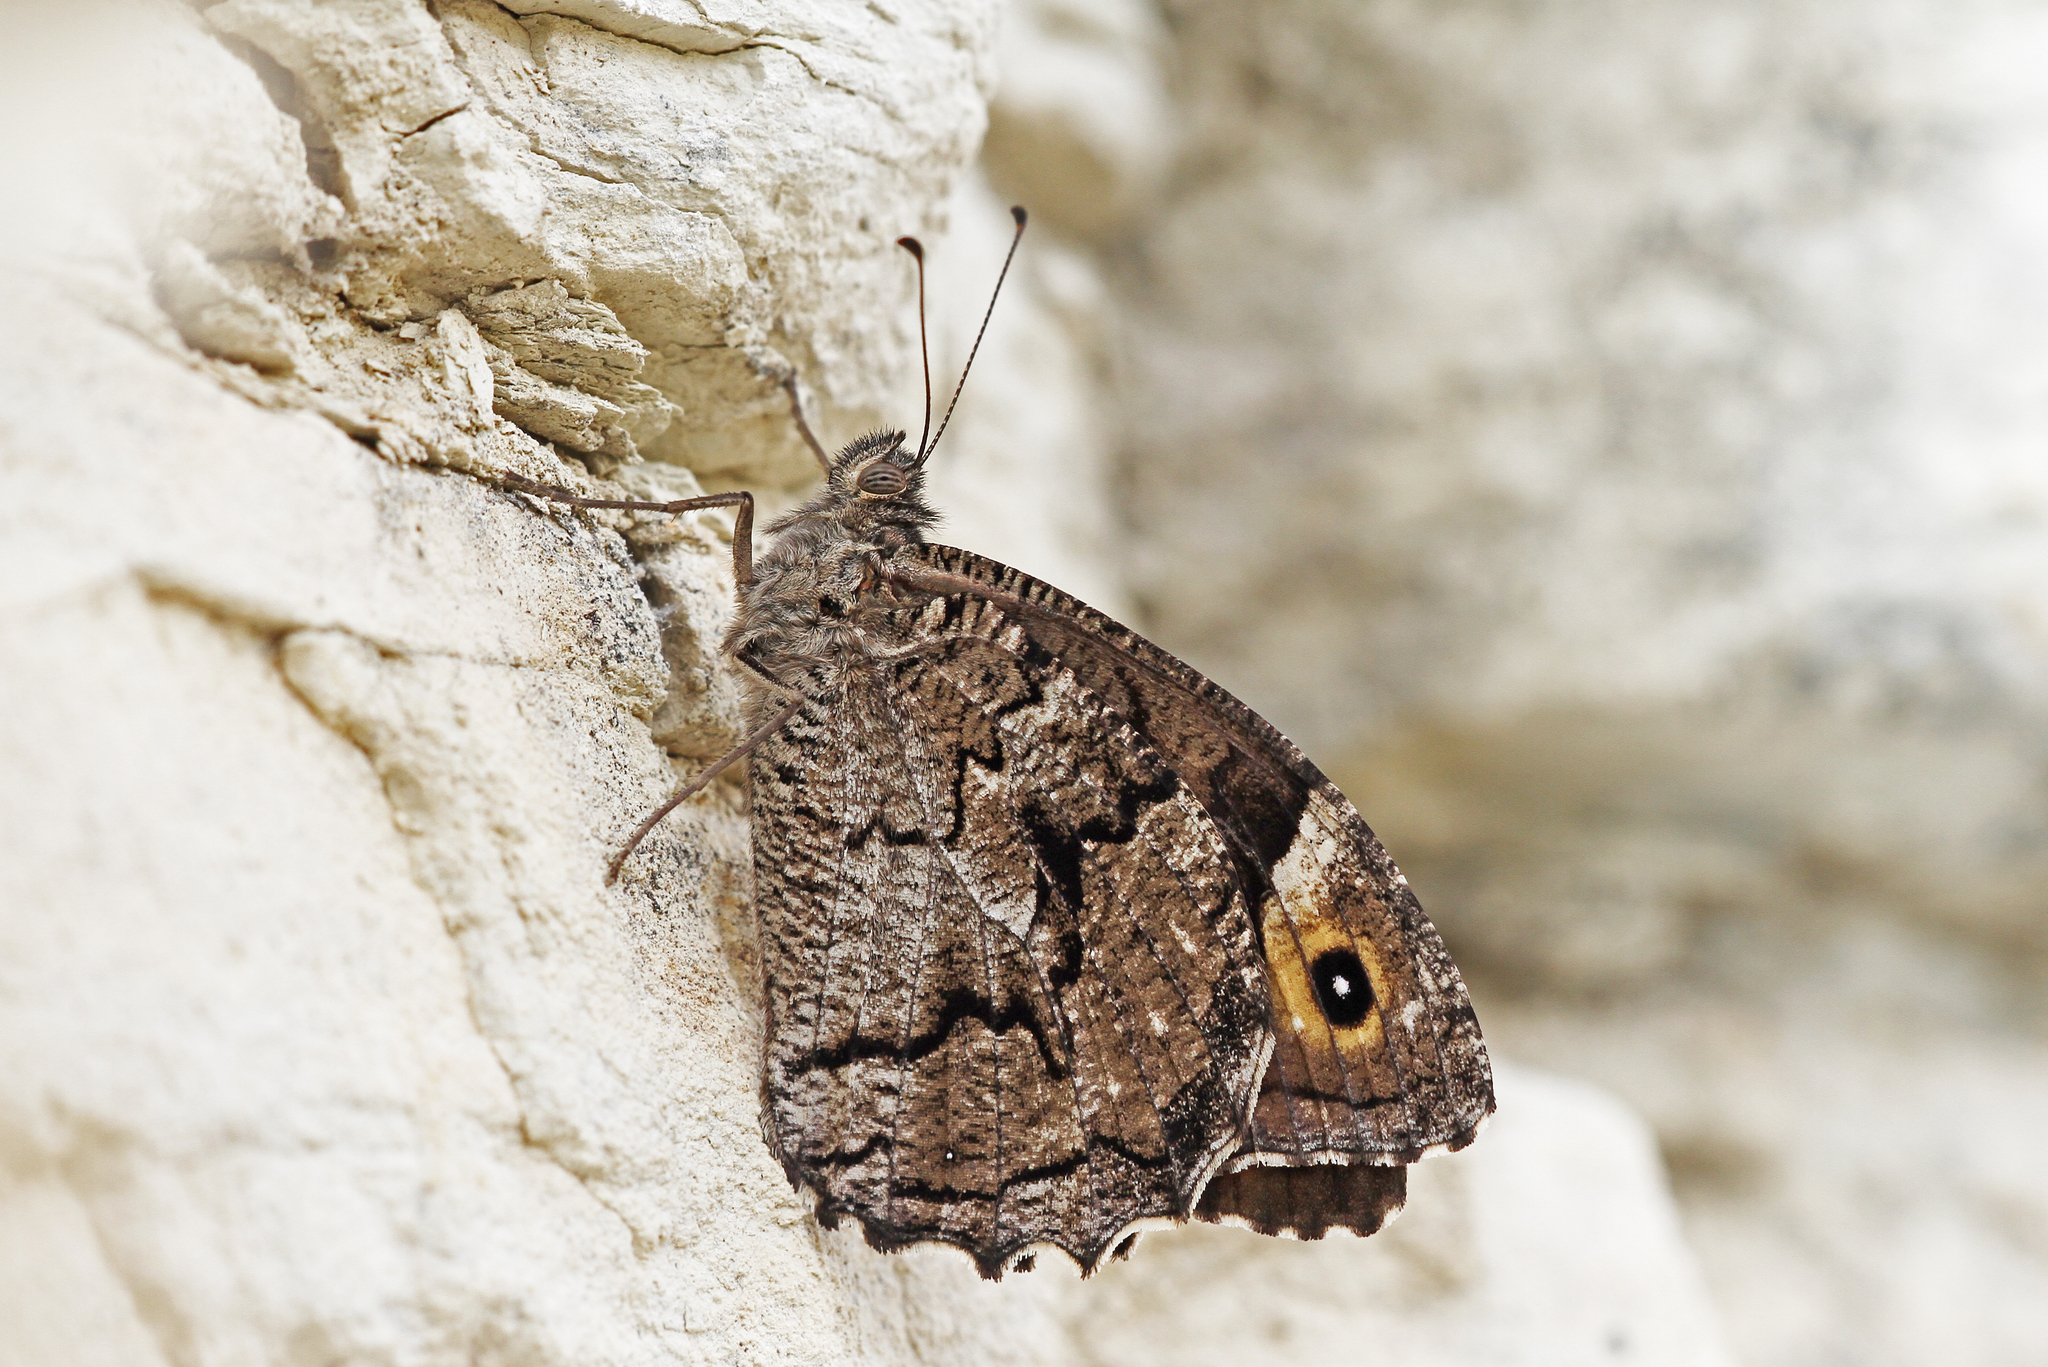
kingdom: Animalia
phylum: Arthropoda
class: Insecta
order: Lepidoptera
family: Nymphalidae
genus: Hipparchia
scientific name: Hipparchia syriaca
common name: Eastern rock grayling
